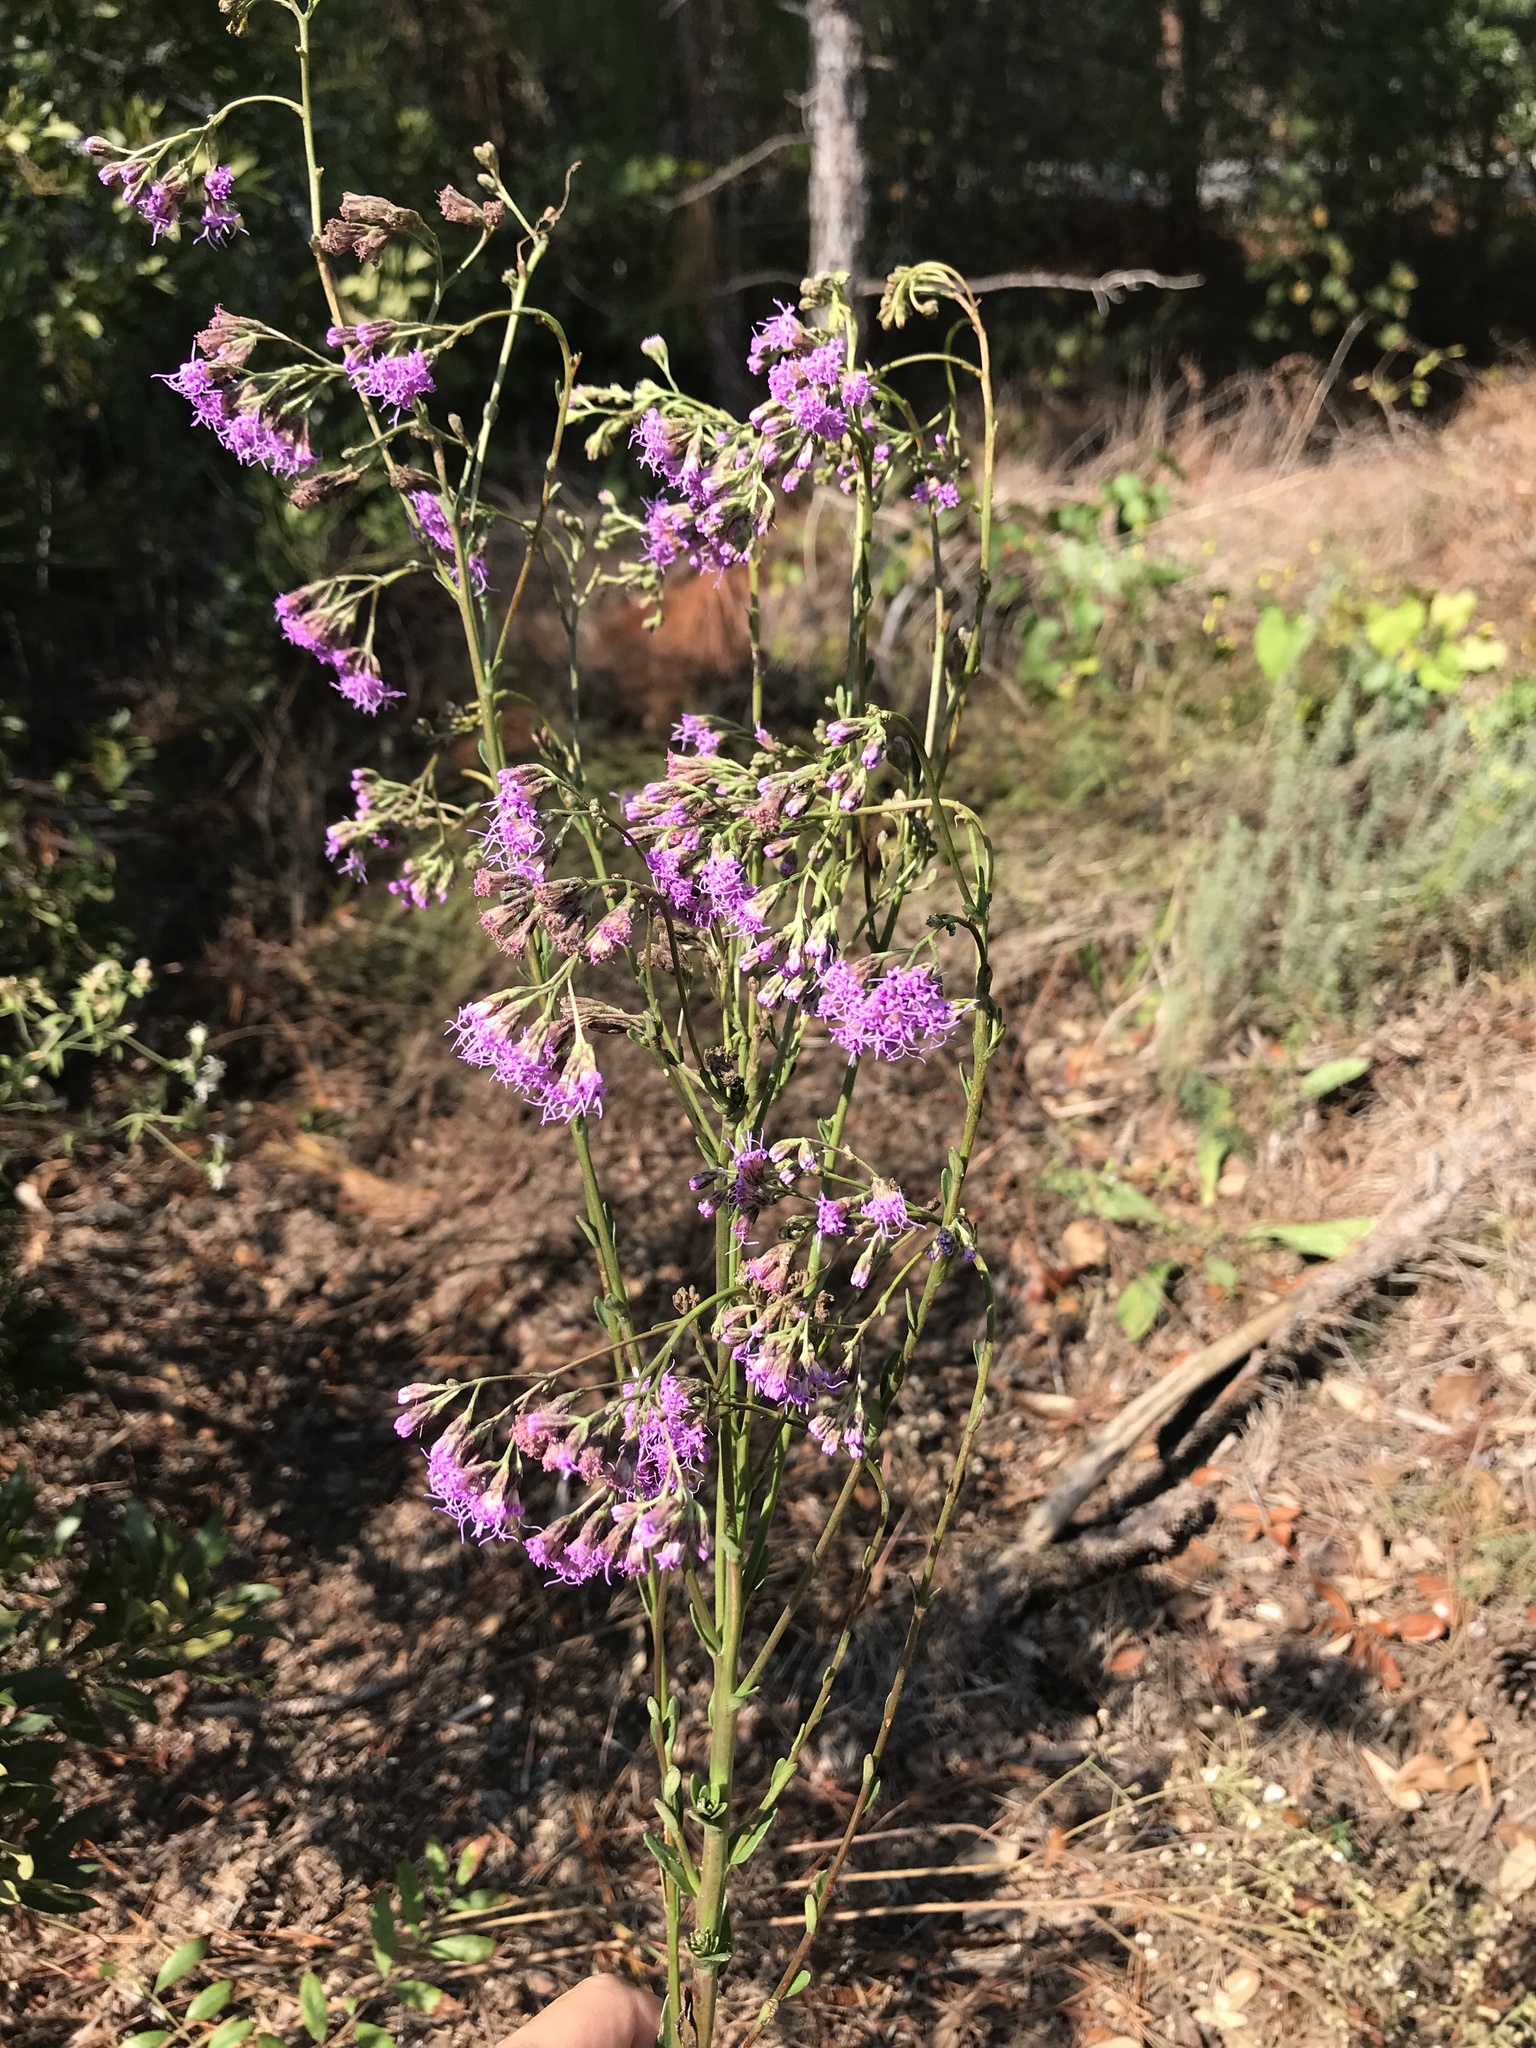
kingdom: Plantae
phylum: Tracheophyta
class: Magnoliopsida
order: Asterales
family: Asteraceae
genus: Carphephorus
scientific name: Carphephorus odoratissimus
